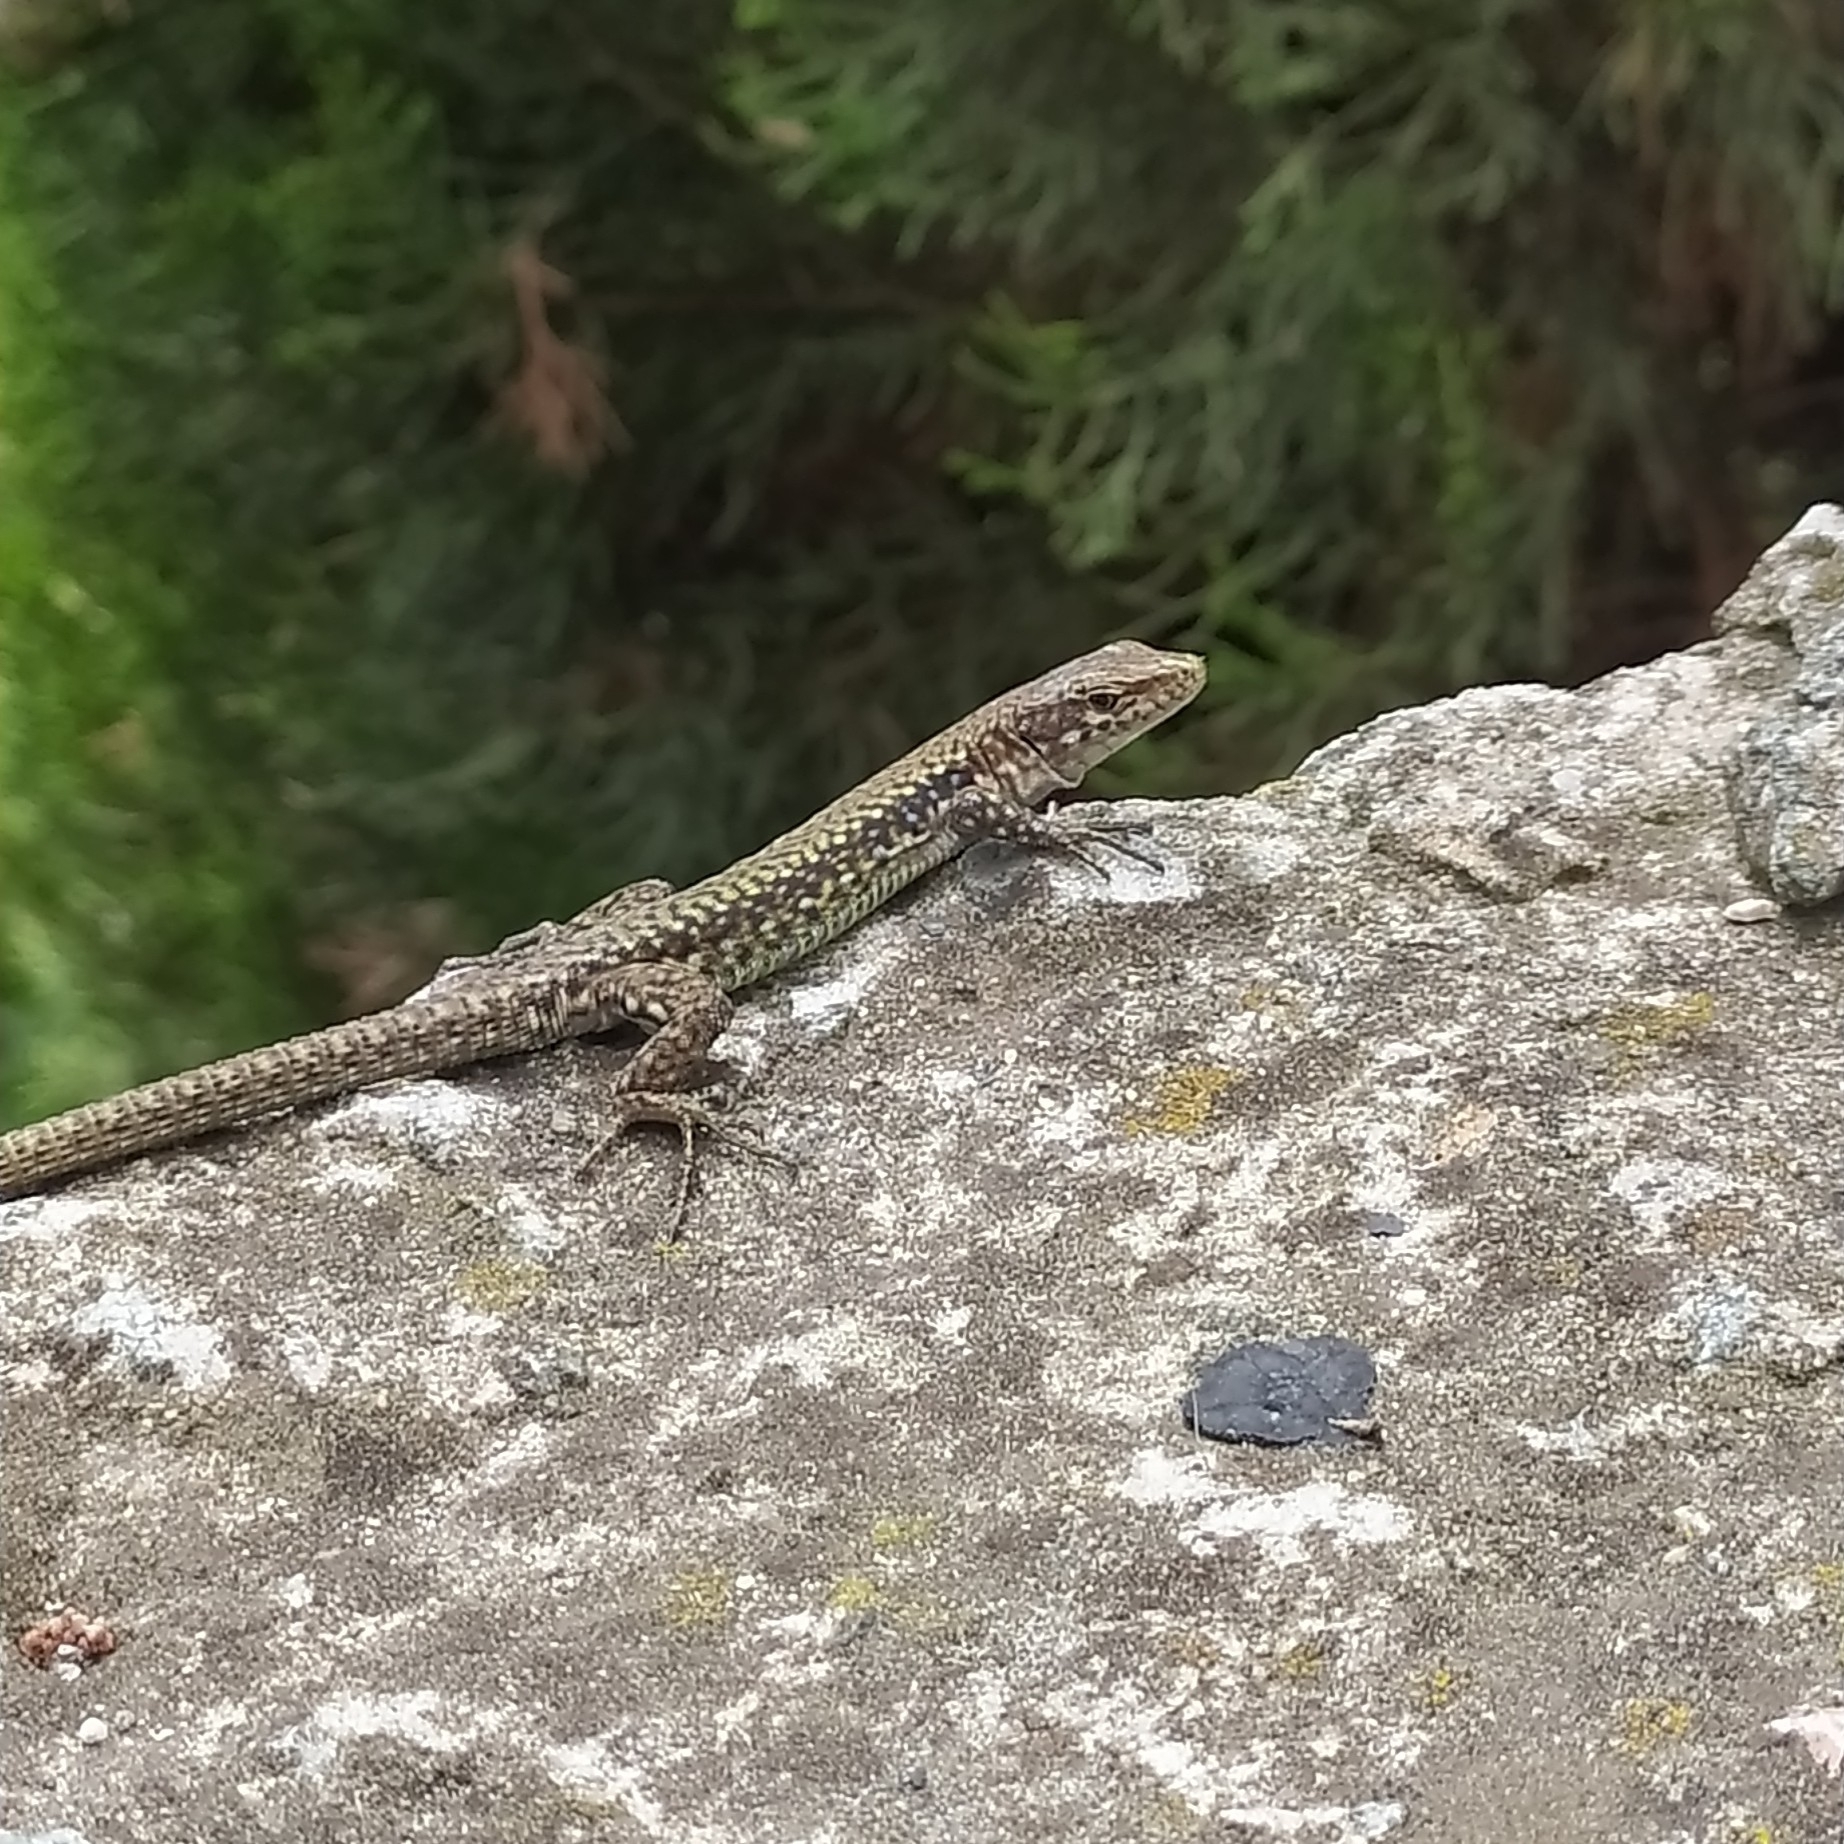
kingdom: Animalia
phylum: Chordata
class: Squamata
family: Lacertidae
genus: Darevskia
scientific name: Darevskia lindholmi
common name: Crimean rock lizard
